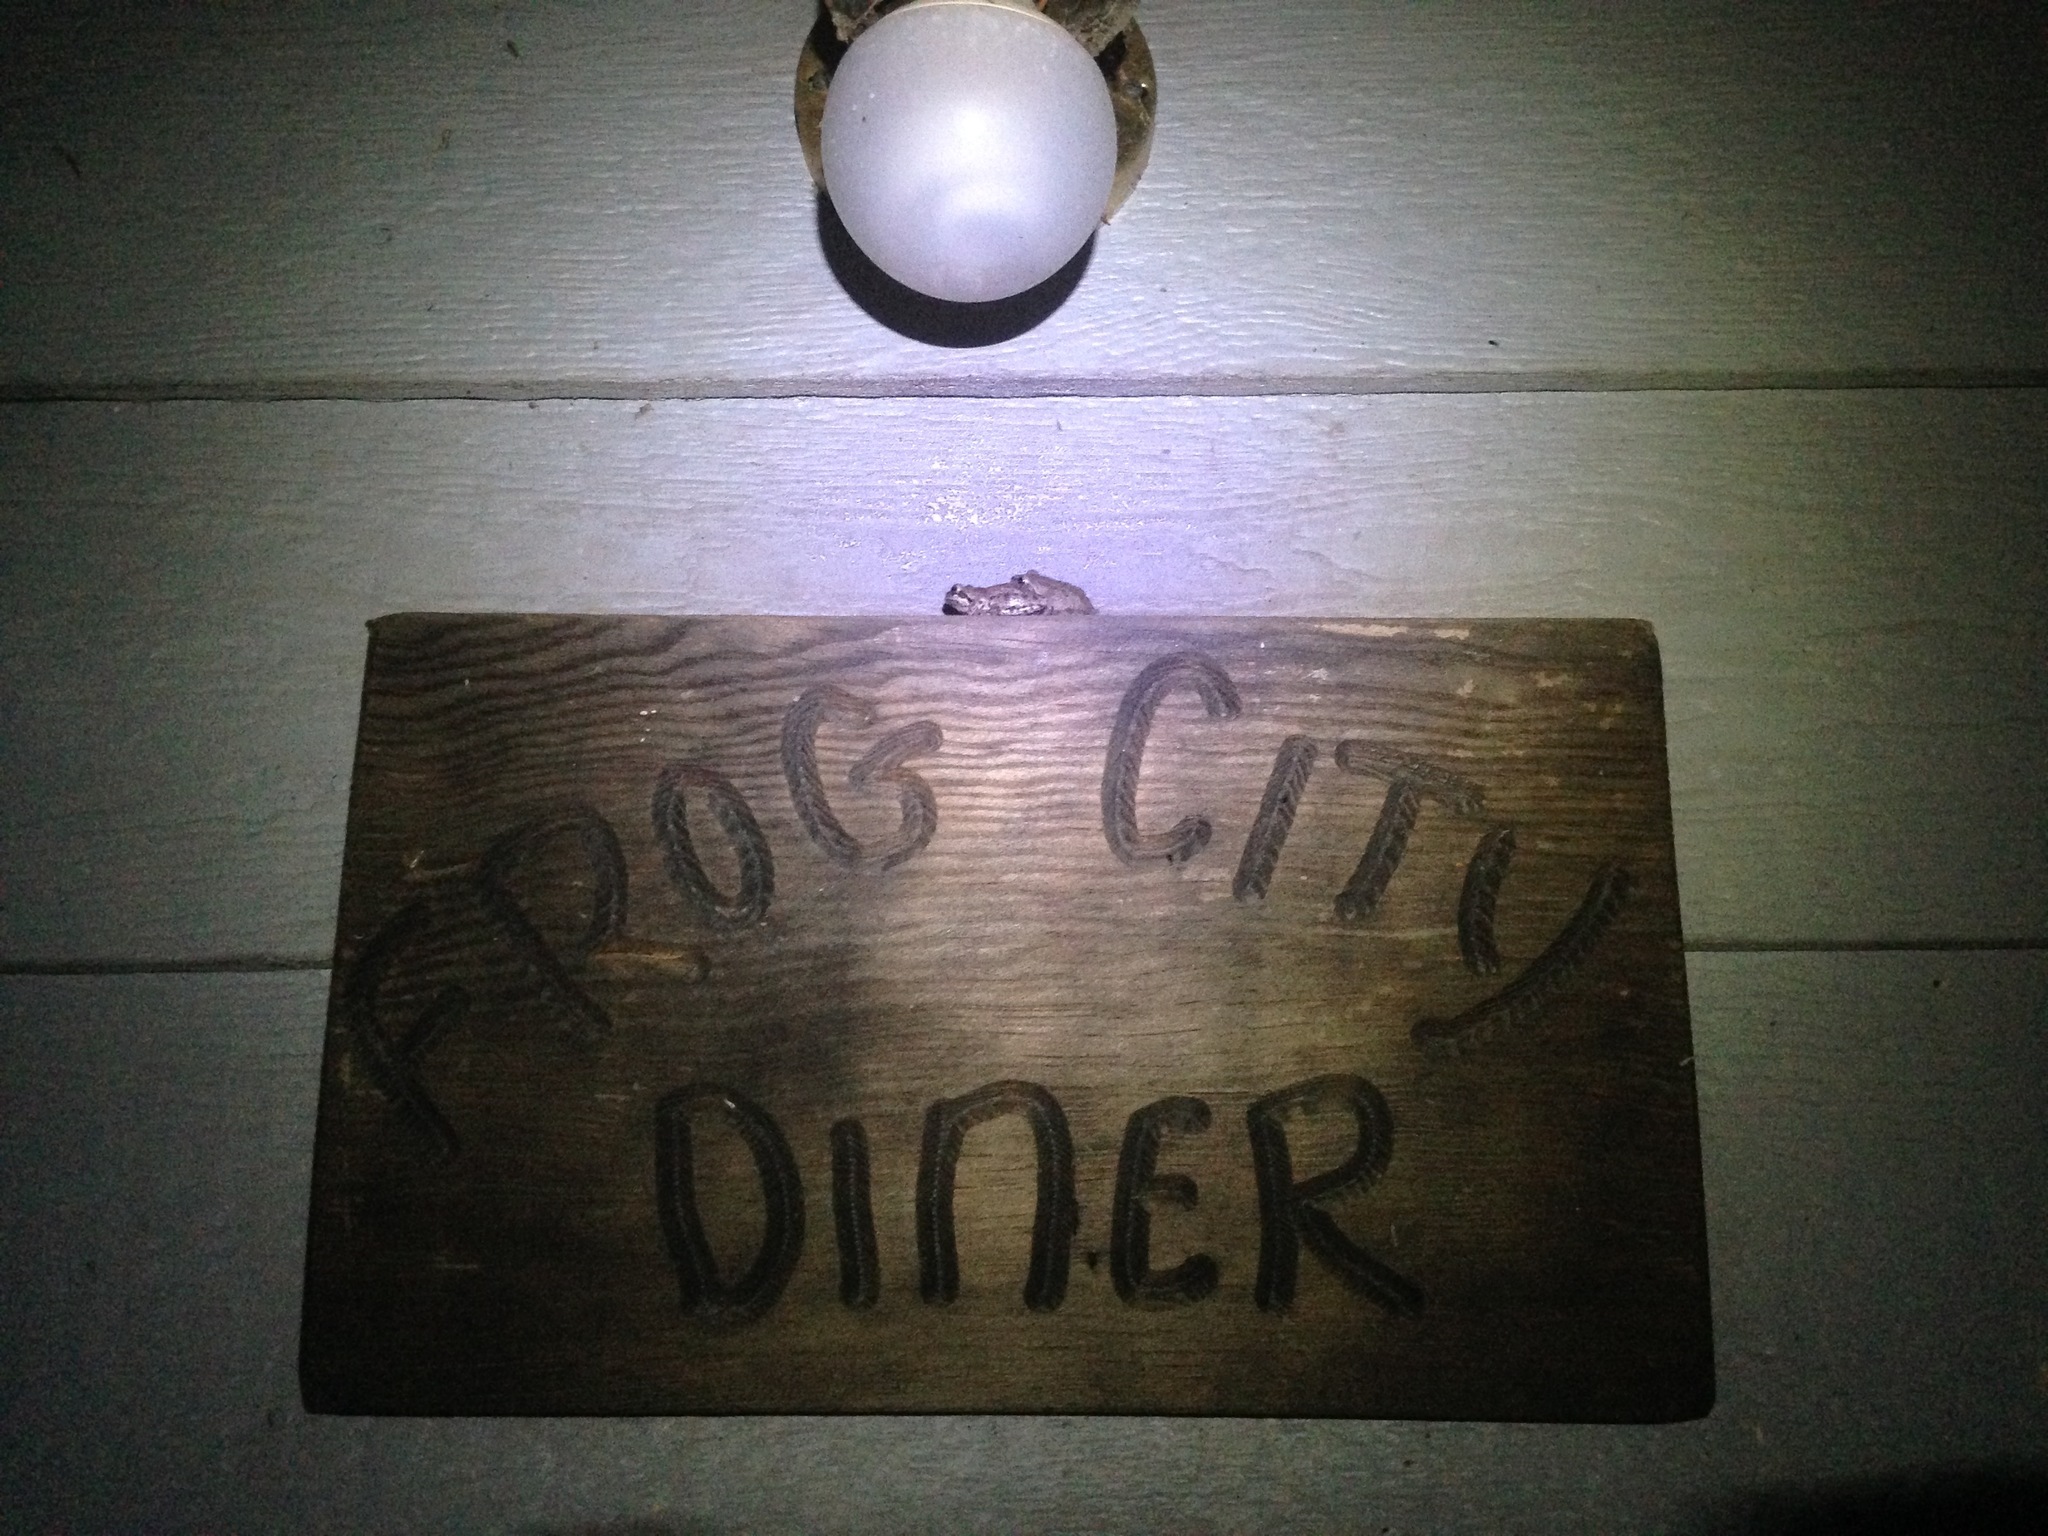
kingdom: Animalia
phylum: Chordata
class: Amphibia
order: Anura
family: Hylidae
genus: Pseudacris
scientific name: Pseudacris regilla
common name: Pacific chorus frog
